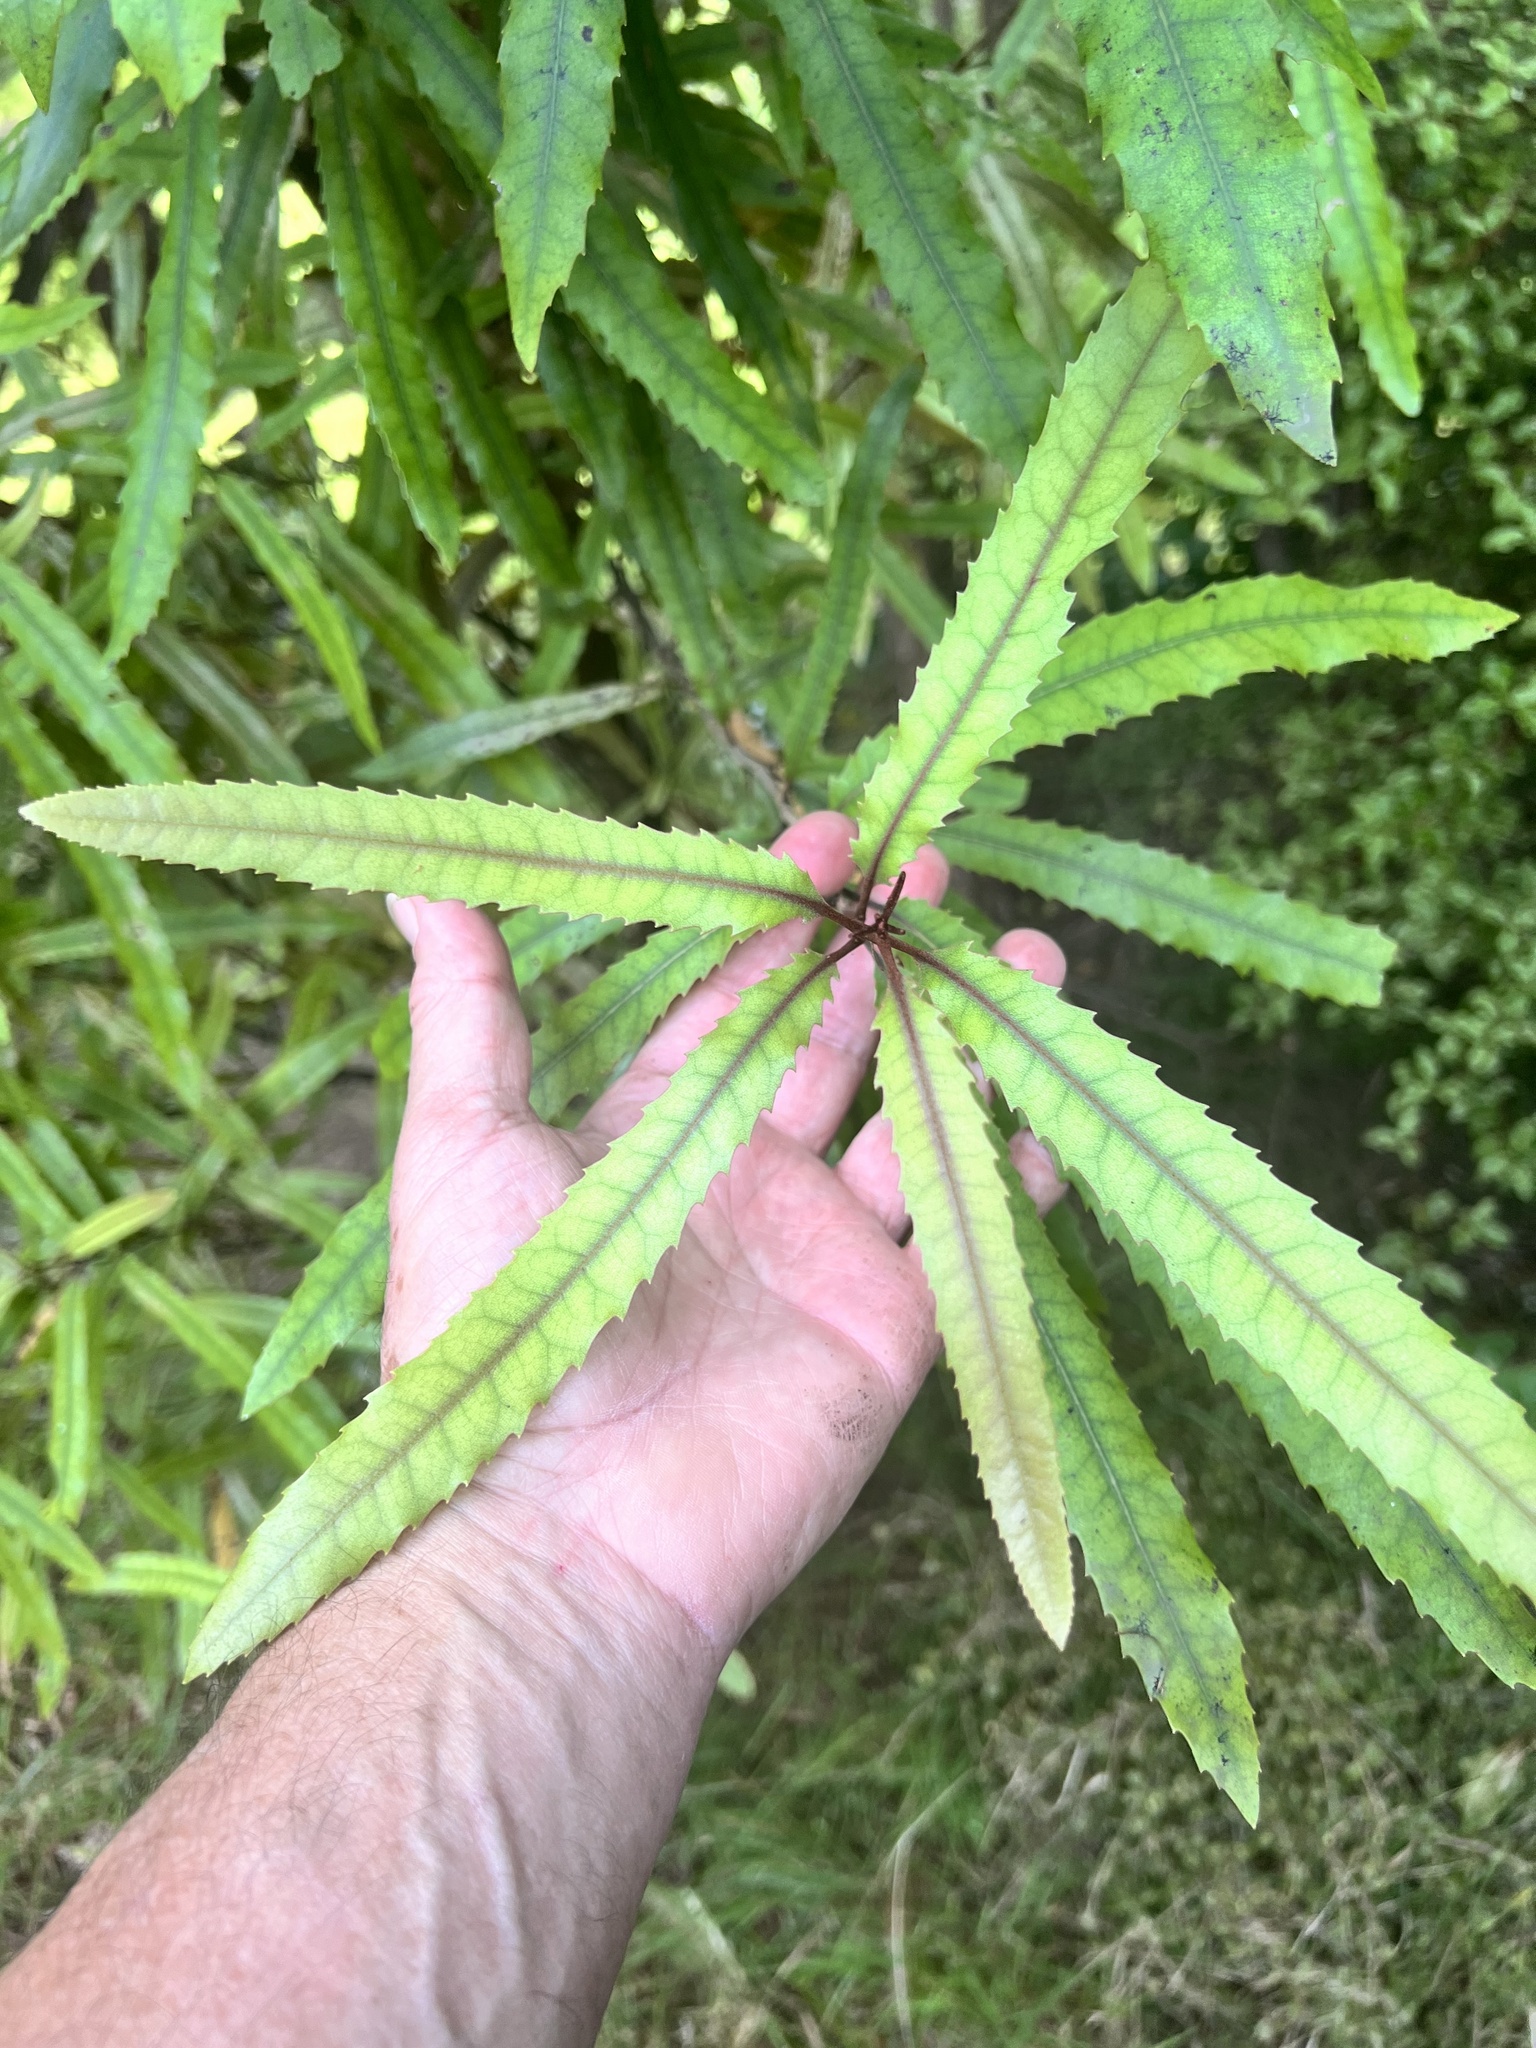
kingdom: Plantae
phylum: Tracheophyta
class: Magnoliopsida
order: Proteales
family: Proteaceae
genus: Knightia
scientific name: Knightia excelsa
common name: New zealand-honeysuckle
